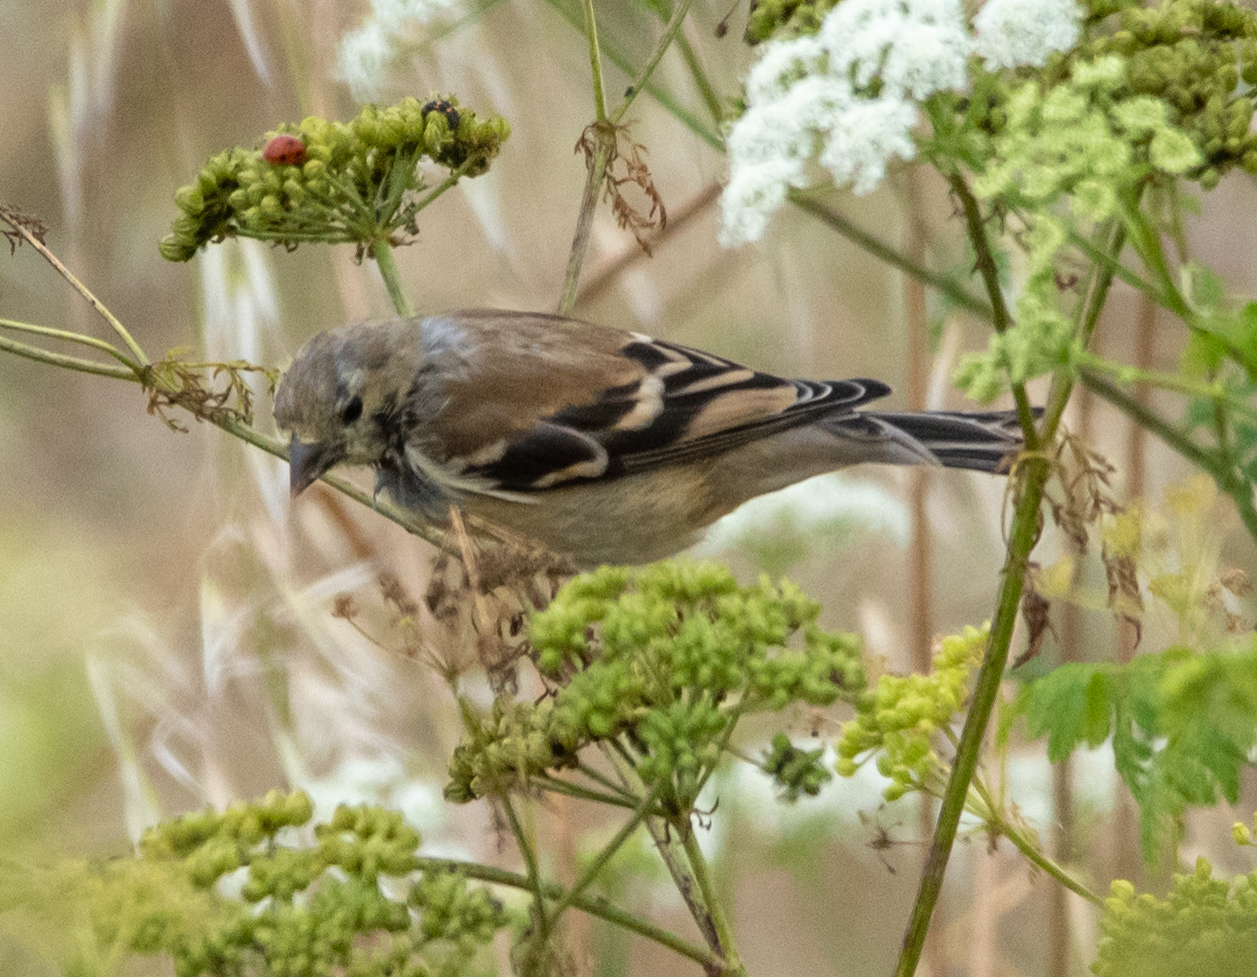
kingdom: Animalia
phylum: Chordata
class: Aves
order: Passeriformes
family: Fringillidae
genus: Spinus
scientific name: Spinus tristis
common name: American goldfinch
